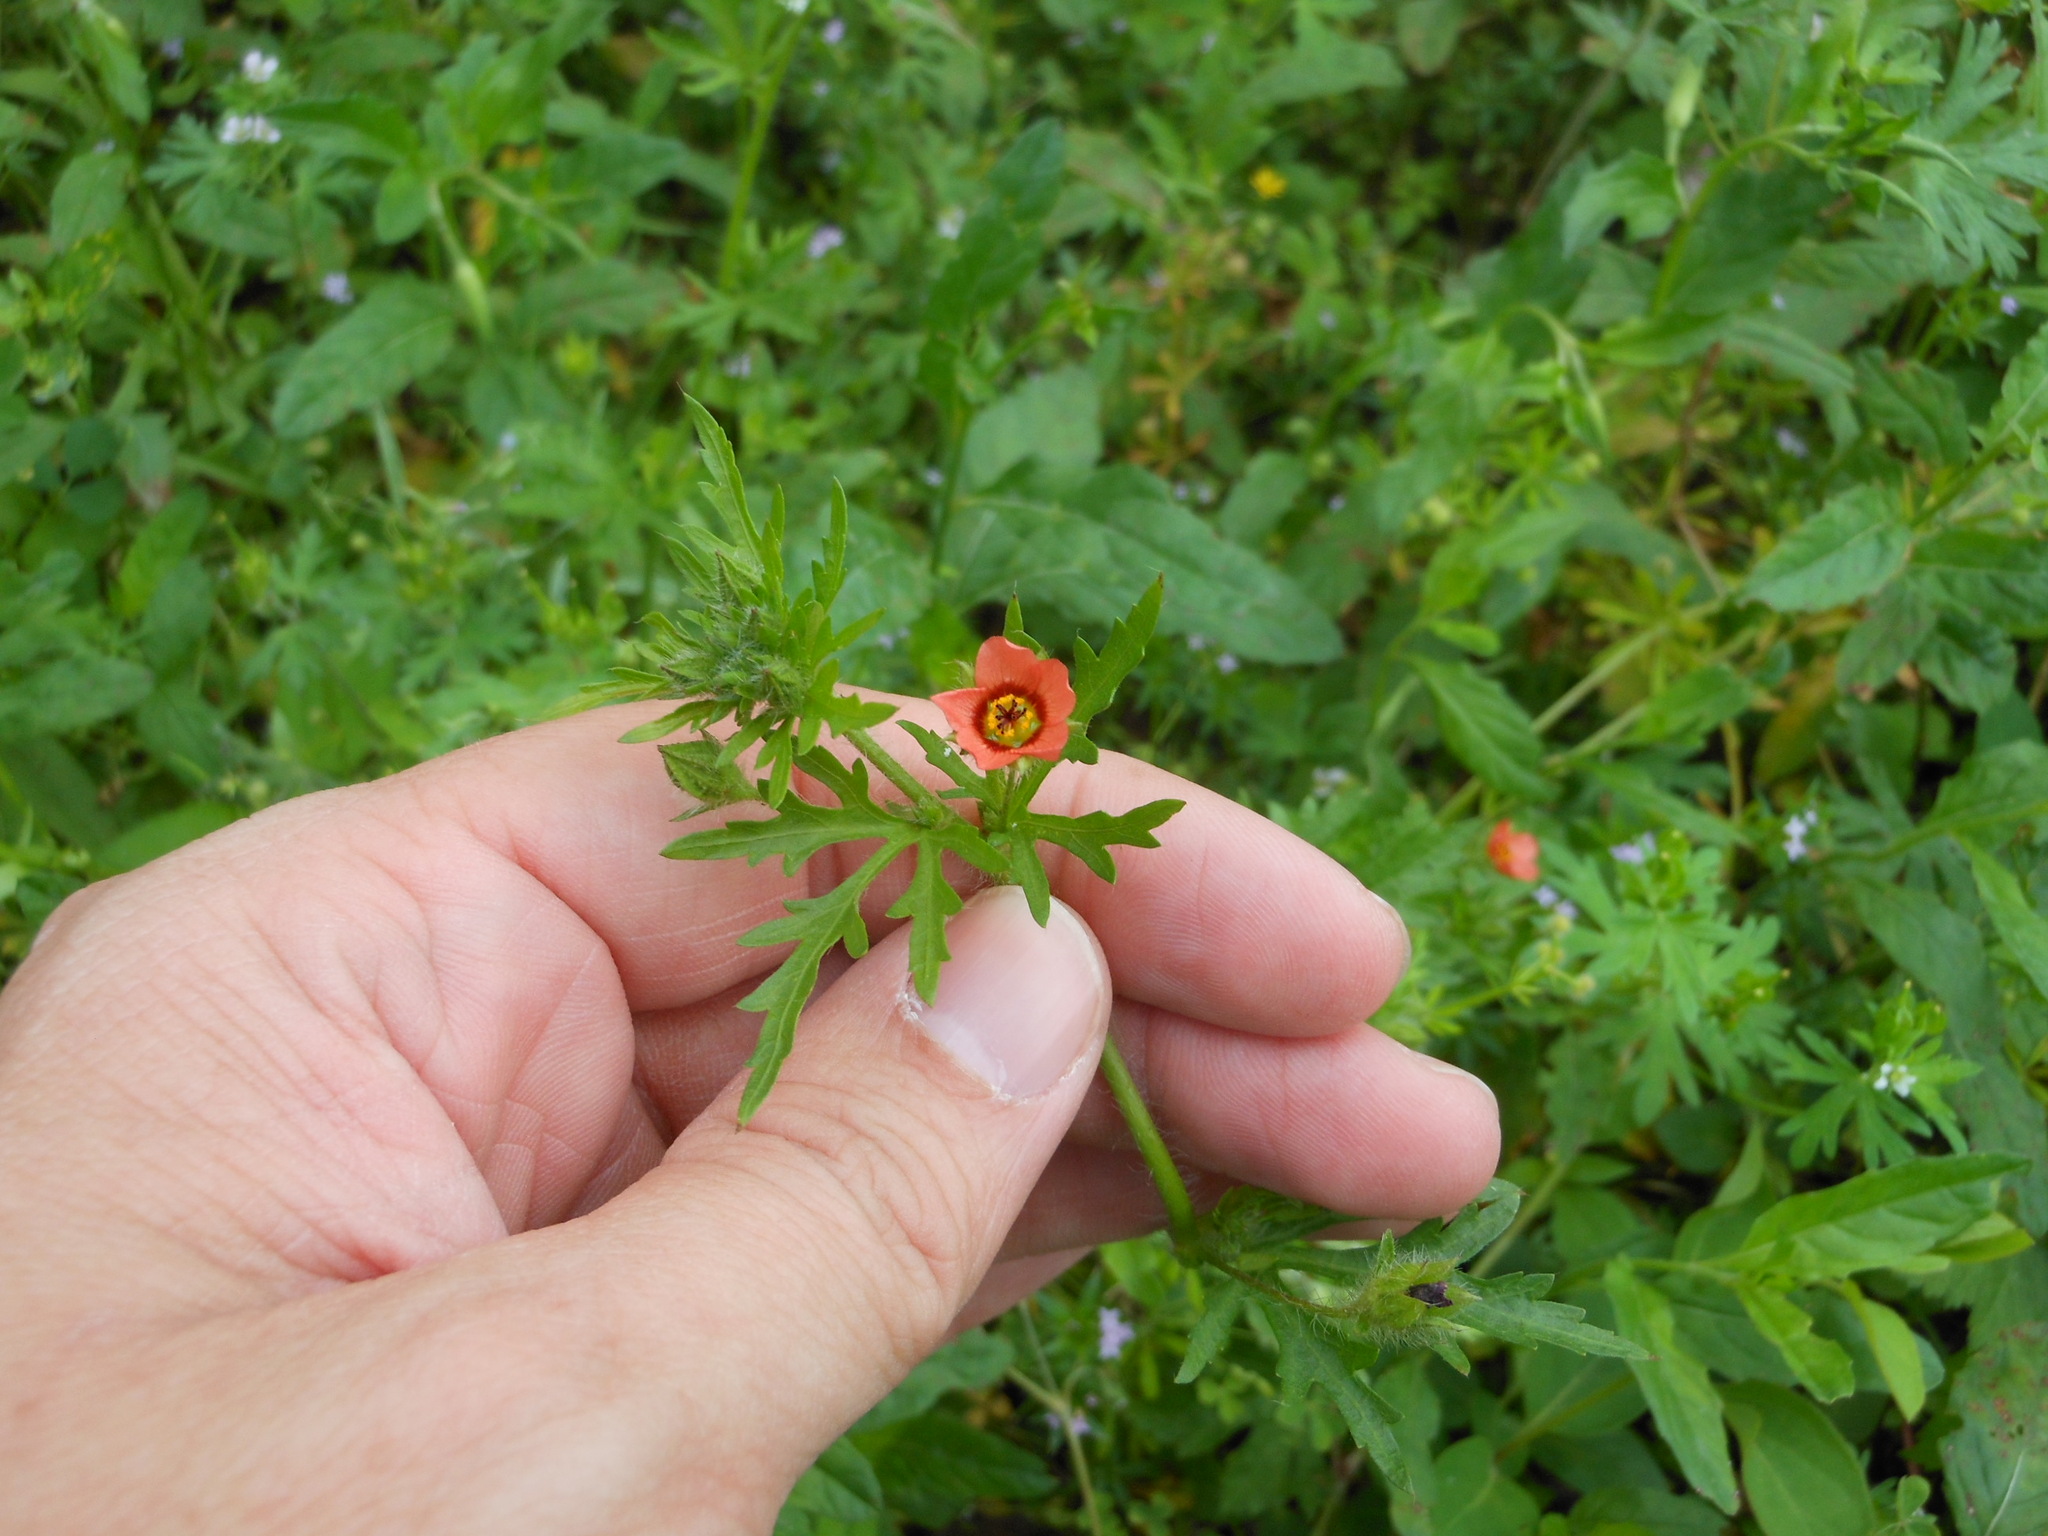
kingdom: Plantae
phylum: Tracheophyta
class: Magnoliopsida
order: Malvales
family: Malvaceae
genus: Modiola
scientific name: Modiola caroliniana
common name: Carolina bristlemallow
